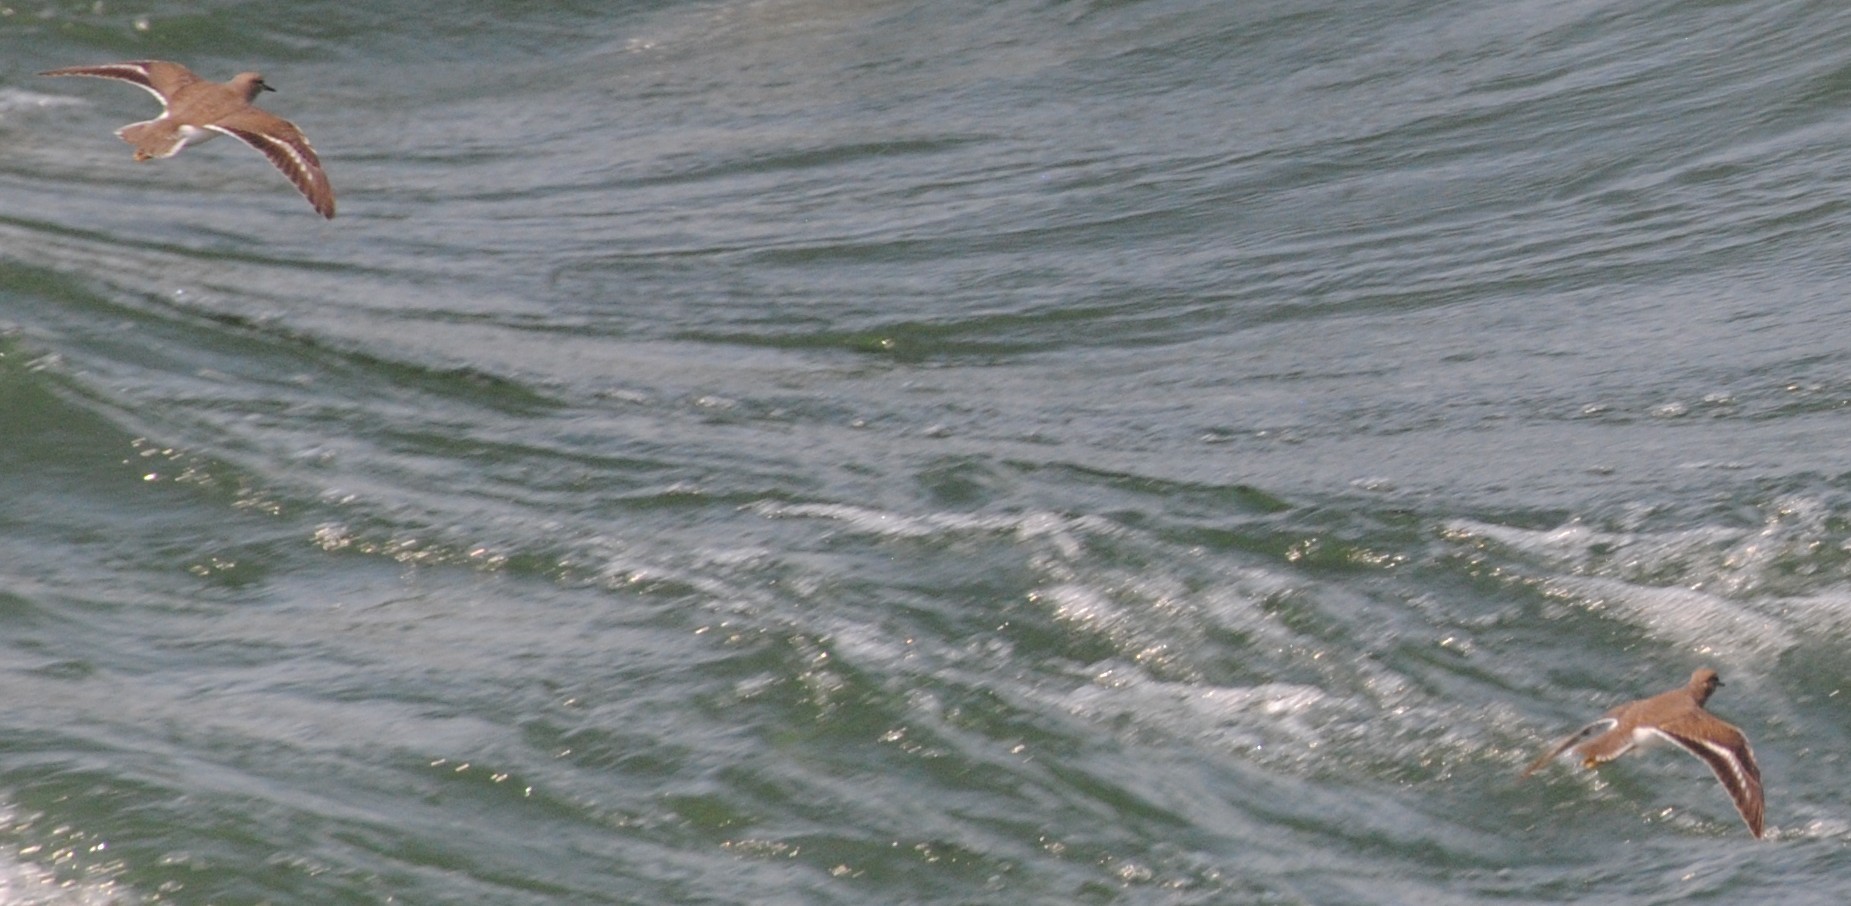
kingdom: Animalia
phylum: Chordata
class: Aves
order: Charadriiformes
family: Scolopacidae
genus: Actitis
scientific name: Actitis macularius
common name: Spotted sandpiper
